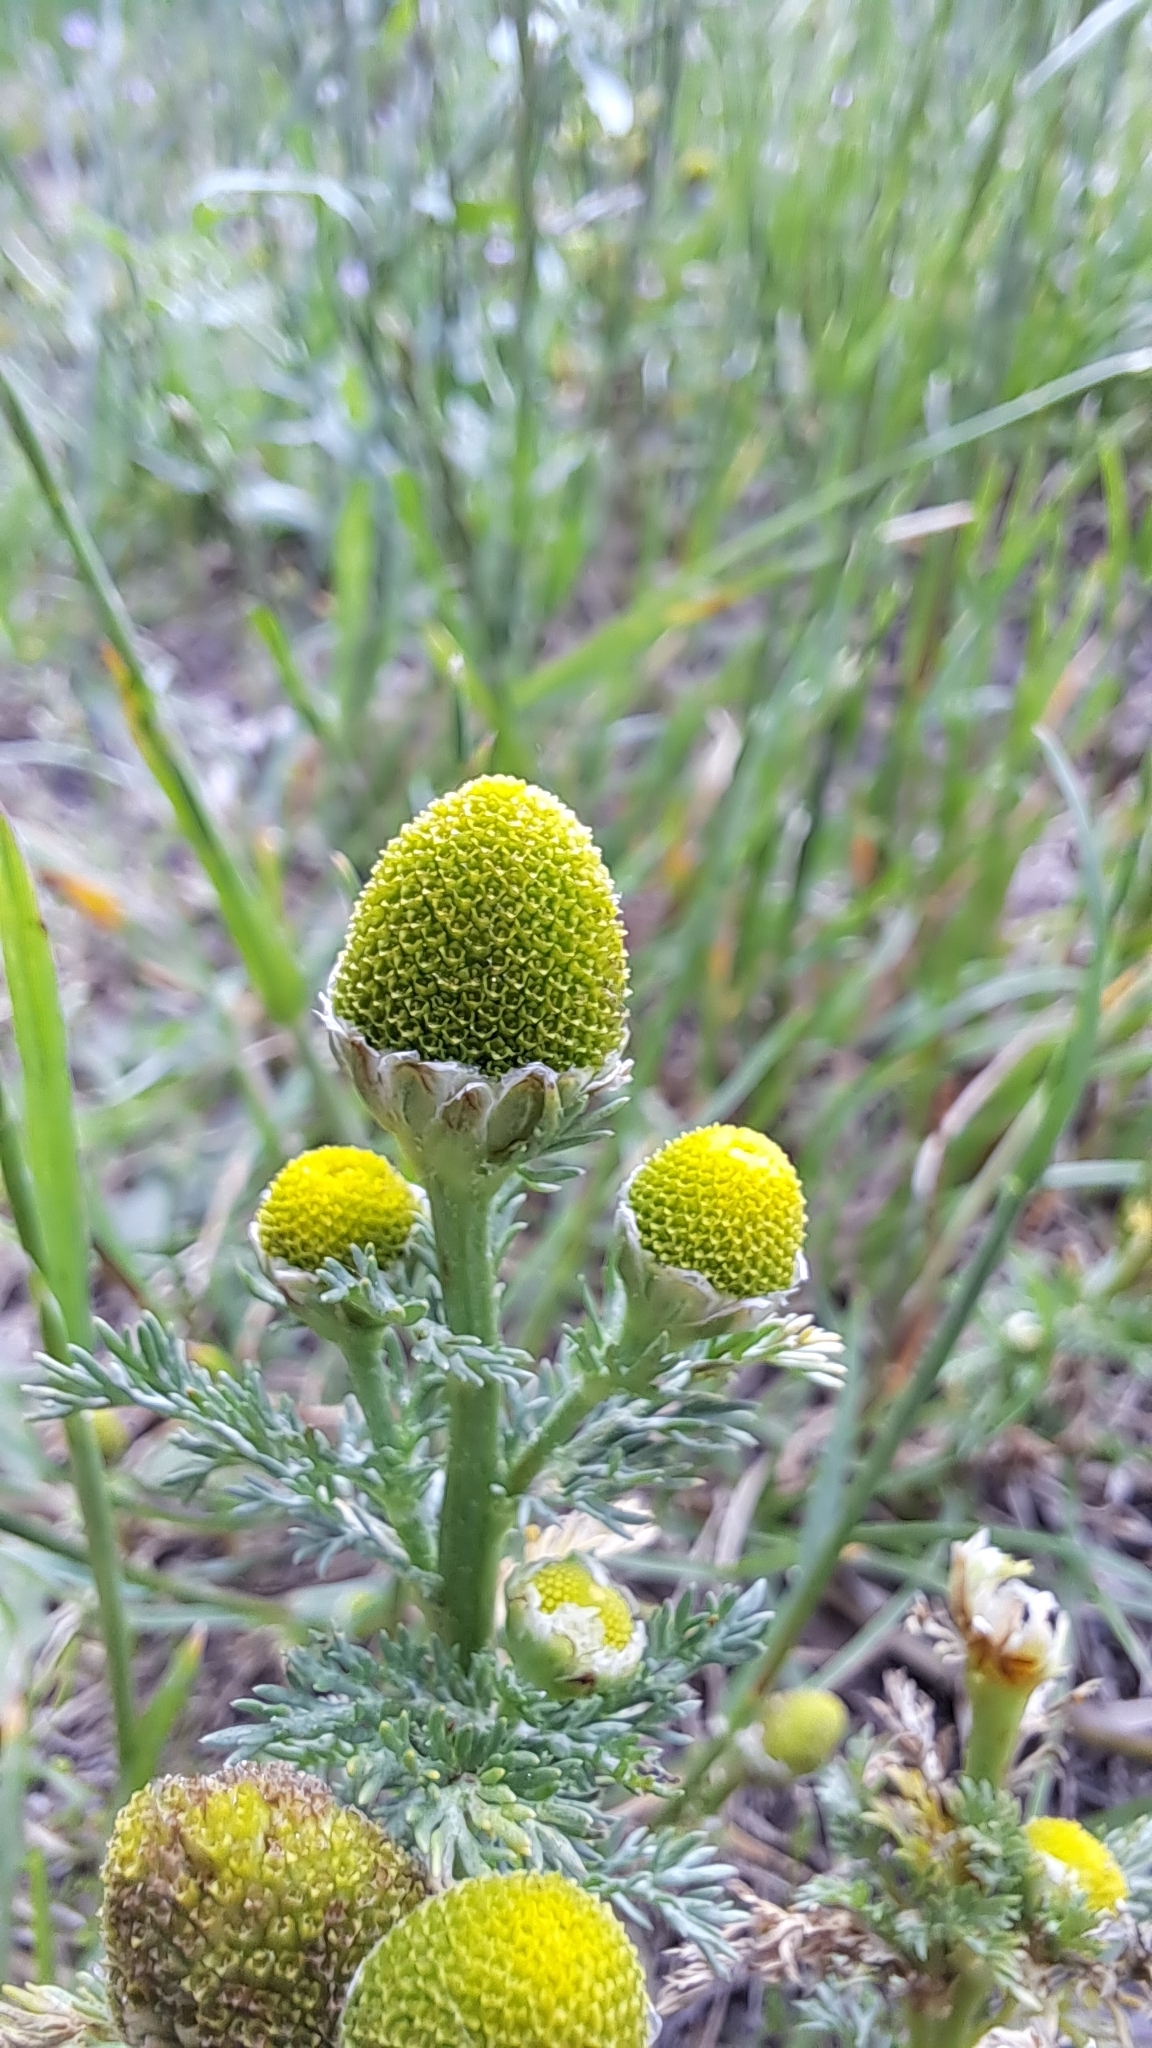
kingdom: Plantae
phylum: Tracheophyta
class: Magnoliopsida
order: Asterales
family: Asteraceae
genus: Matricaria
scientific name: Matricaria discoidea
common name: Disc mayweed
